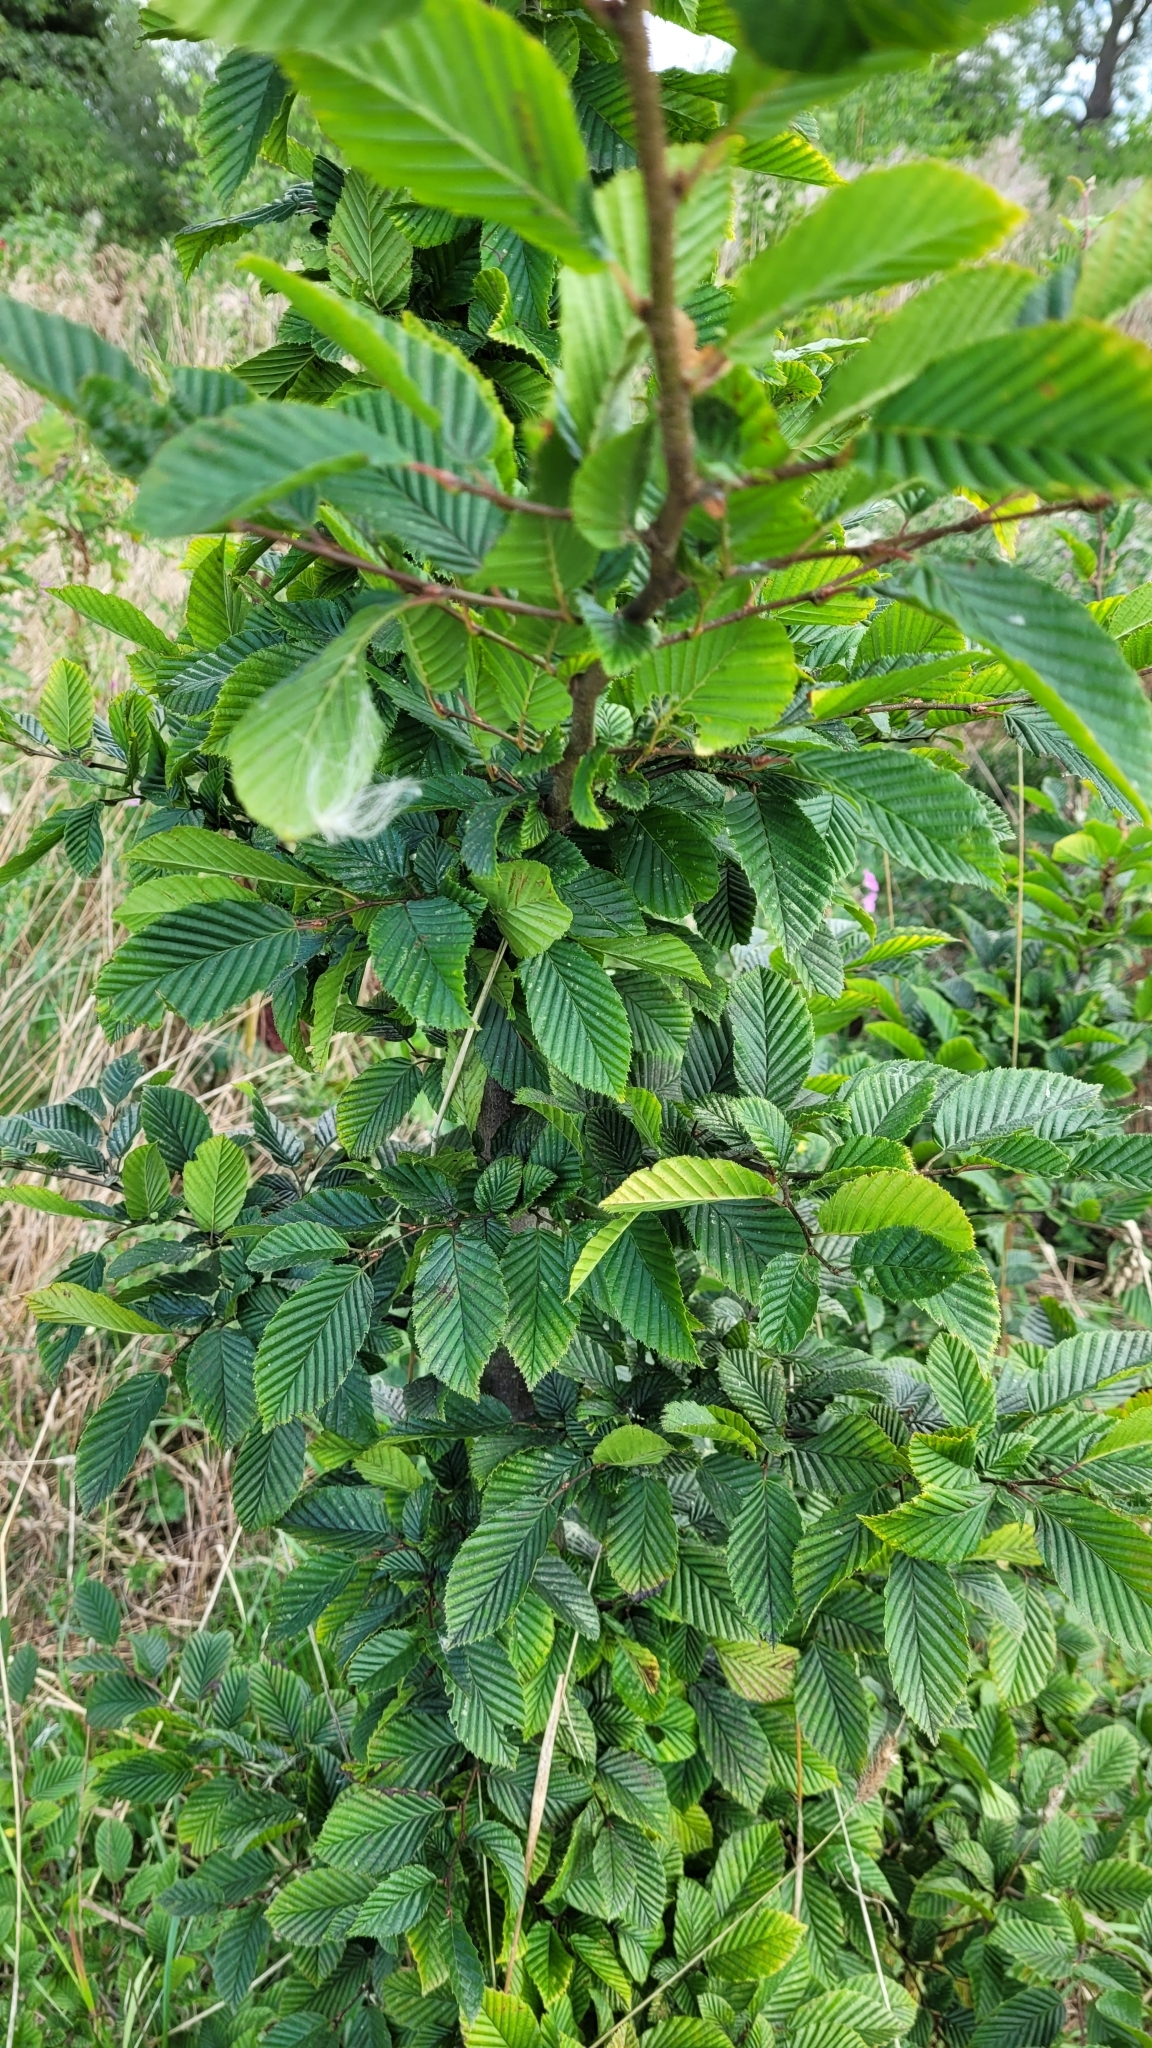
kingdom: Plantae
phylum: Tracheophyta
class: Magnoliopsida
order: Fagales
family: Betulaceae
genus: Carpinus
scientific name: Carpinus betulus
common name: Hornbeam
